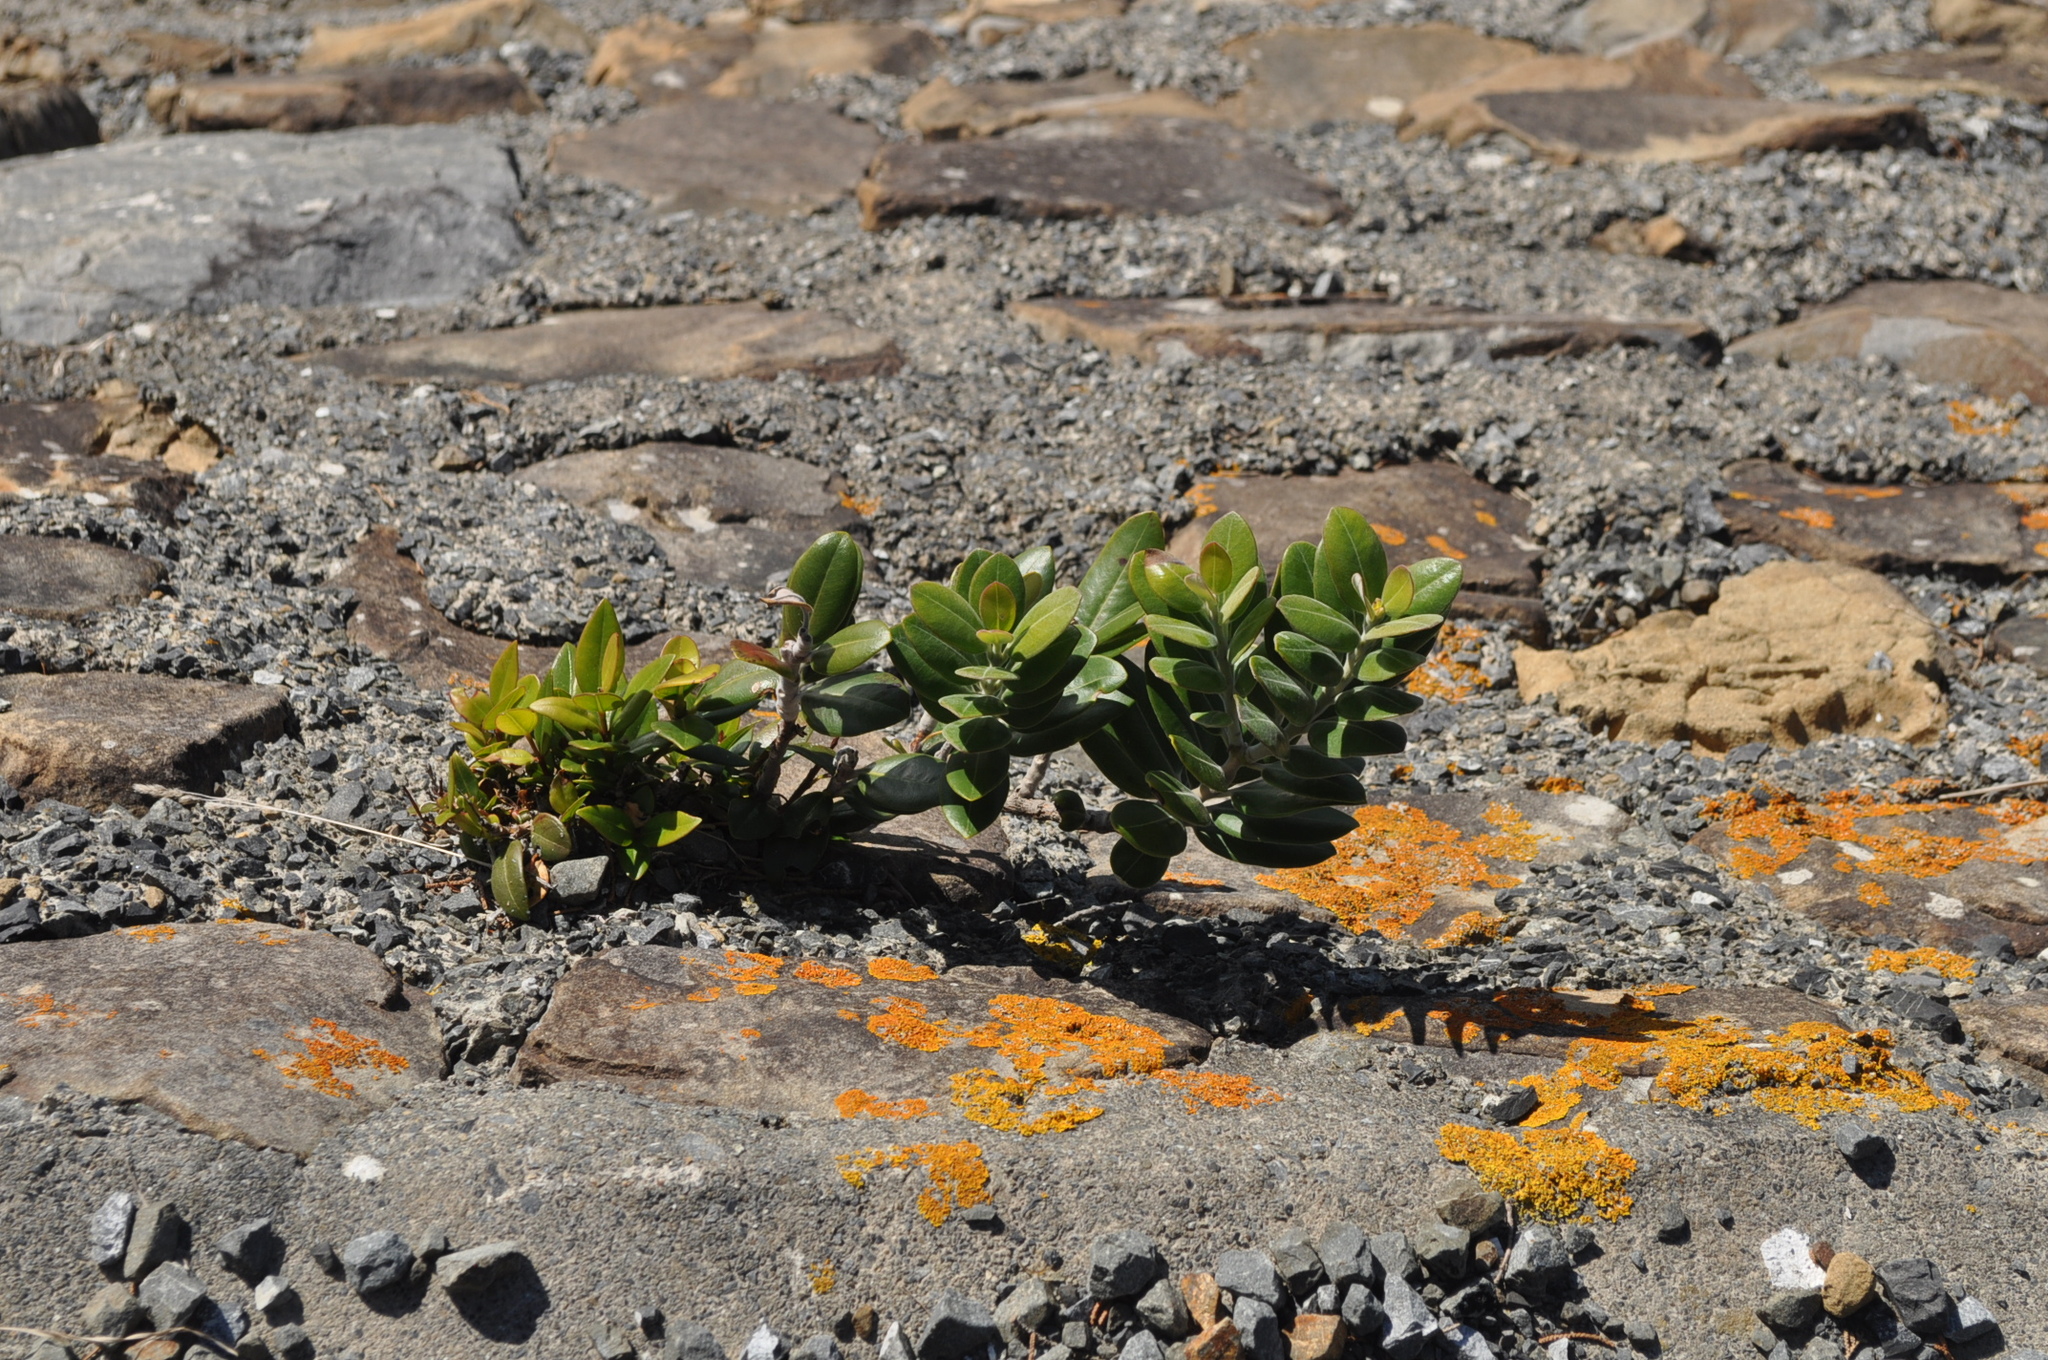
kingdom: Plantae
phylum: Tracheophyta
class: Magnoliopsida
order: Myrtales
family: Myrtaceae
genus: Metrosideros
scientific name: Metrosideros excelsa
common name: New zealand christmastree
